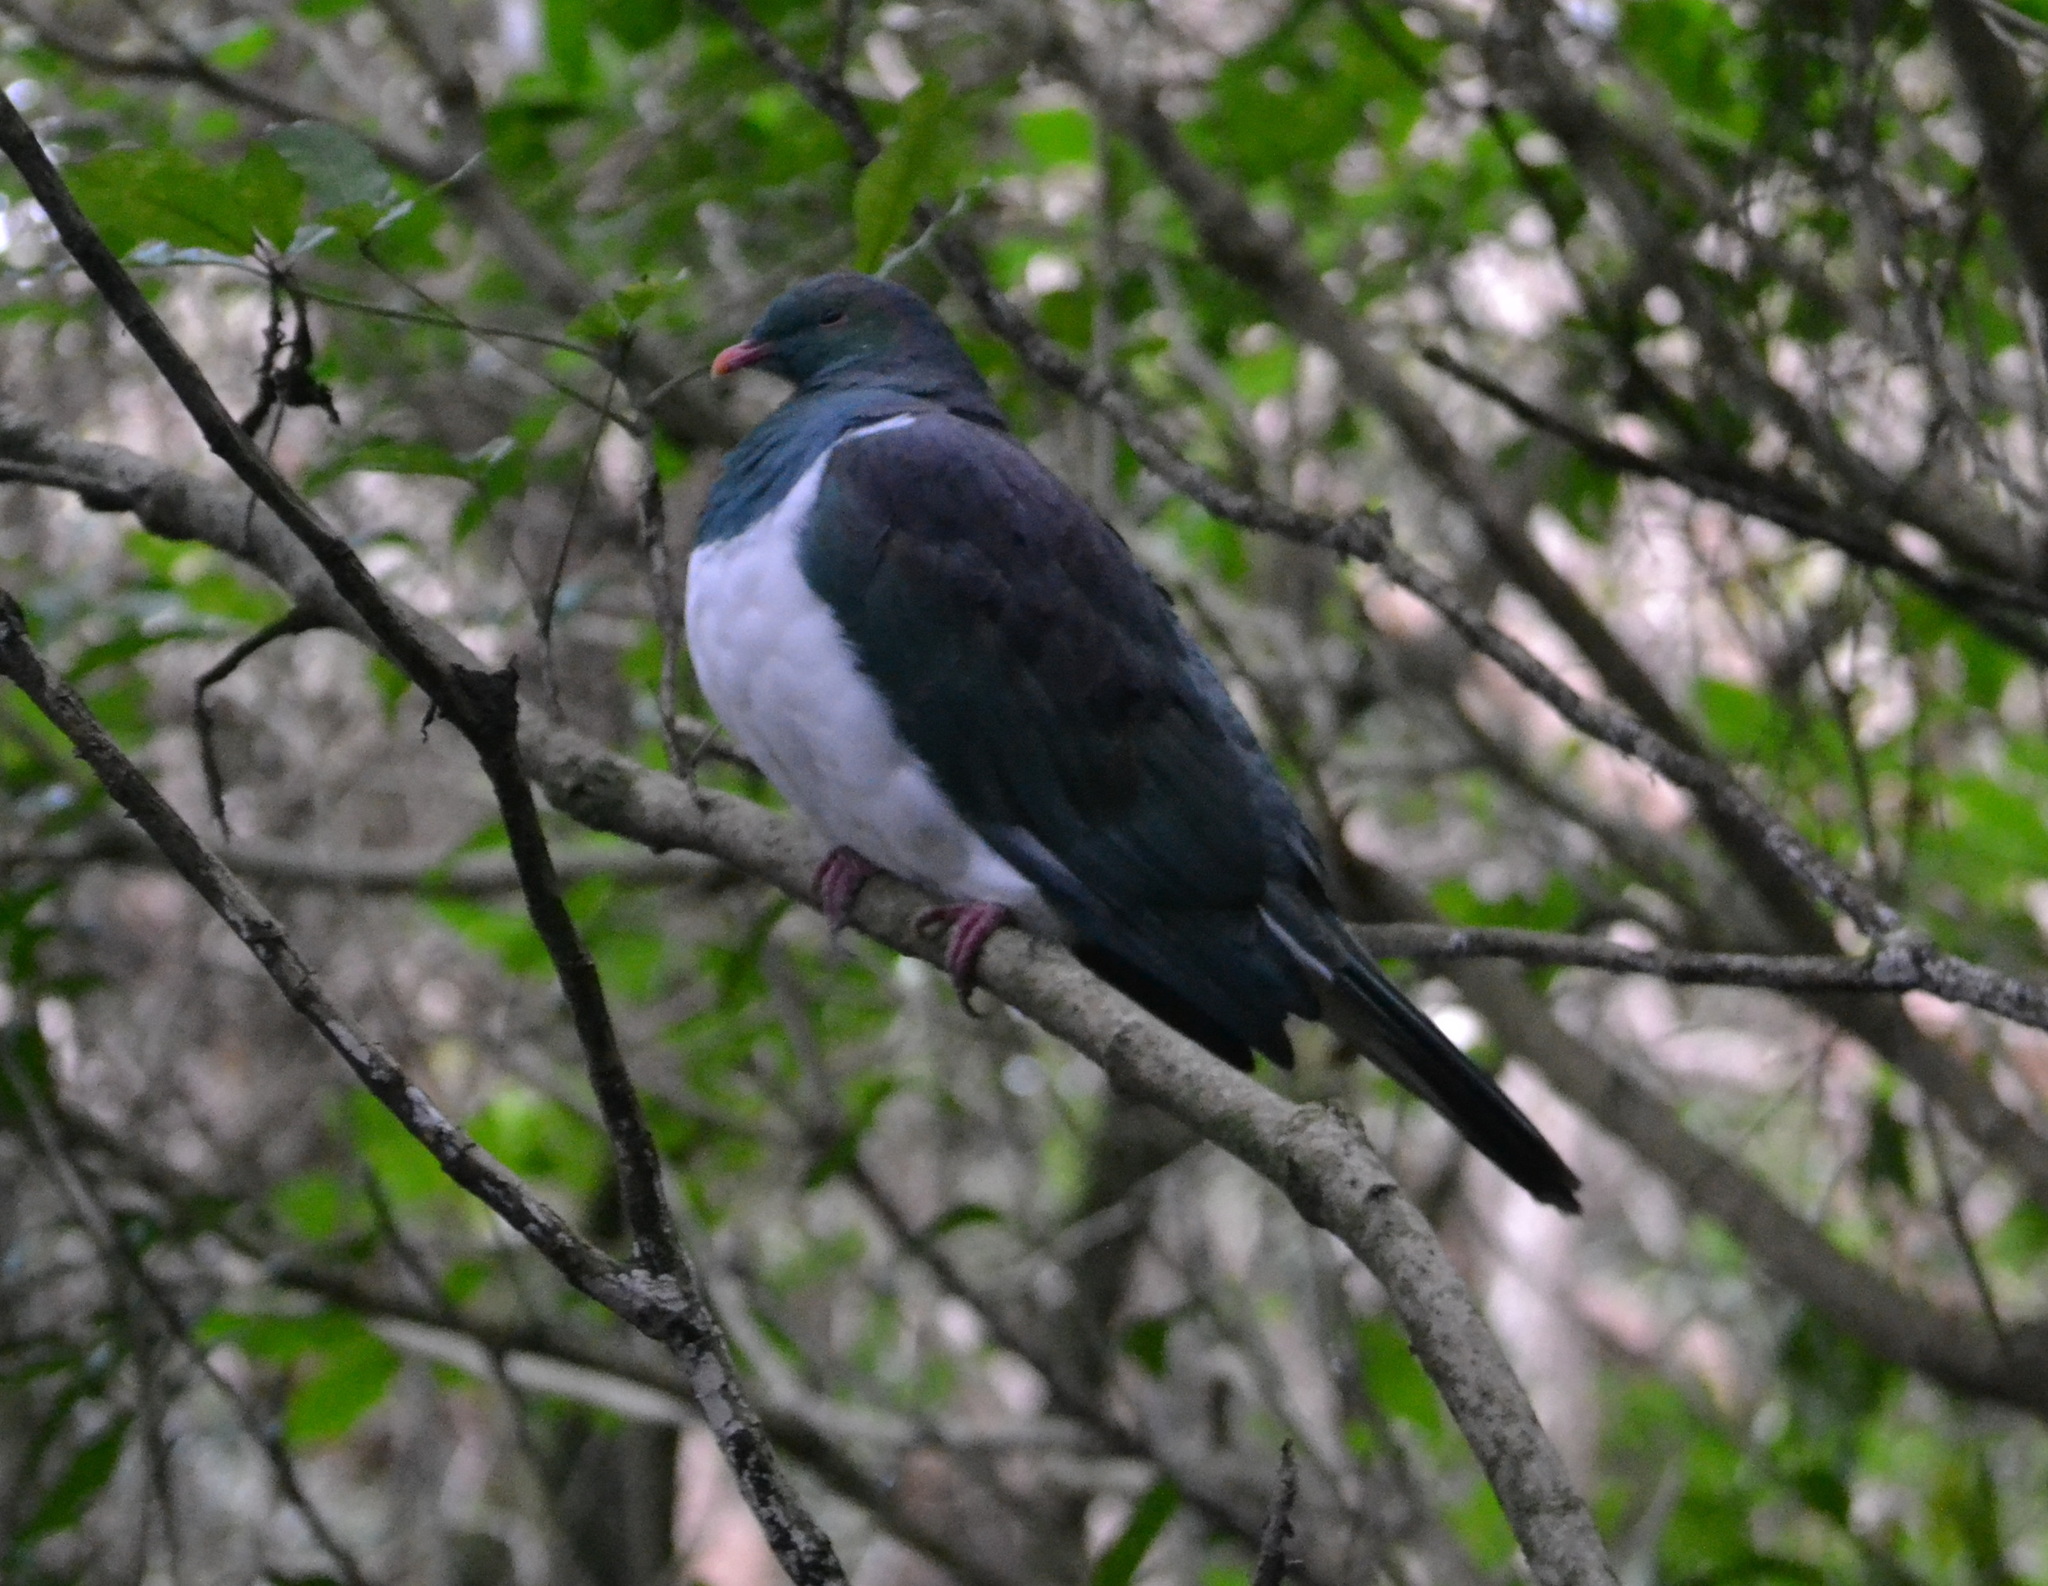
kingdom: Animalia
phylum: Chordata
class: Aves
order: Columbiformes
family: Columbidae
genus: Hemiphaga
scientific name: Hemiphaga novaeseelandiae
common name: New zealand pigeon
